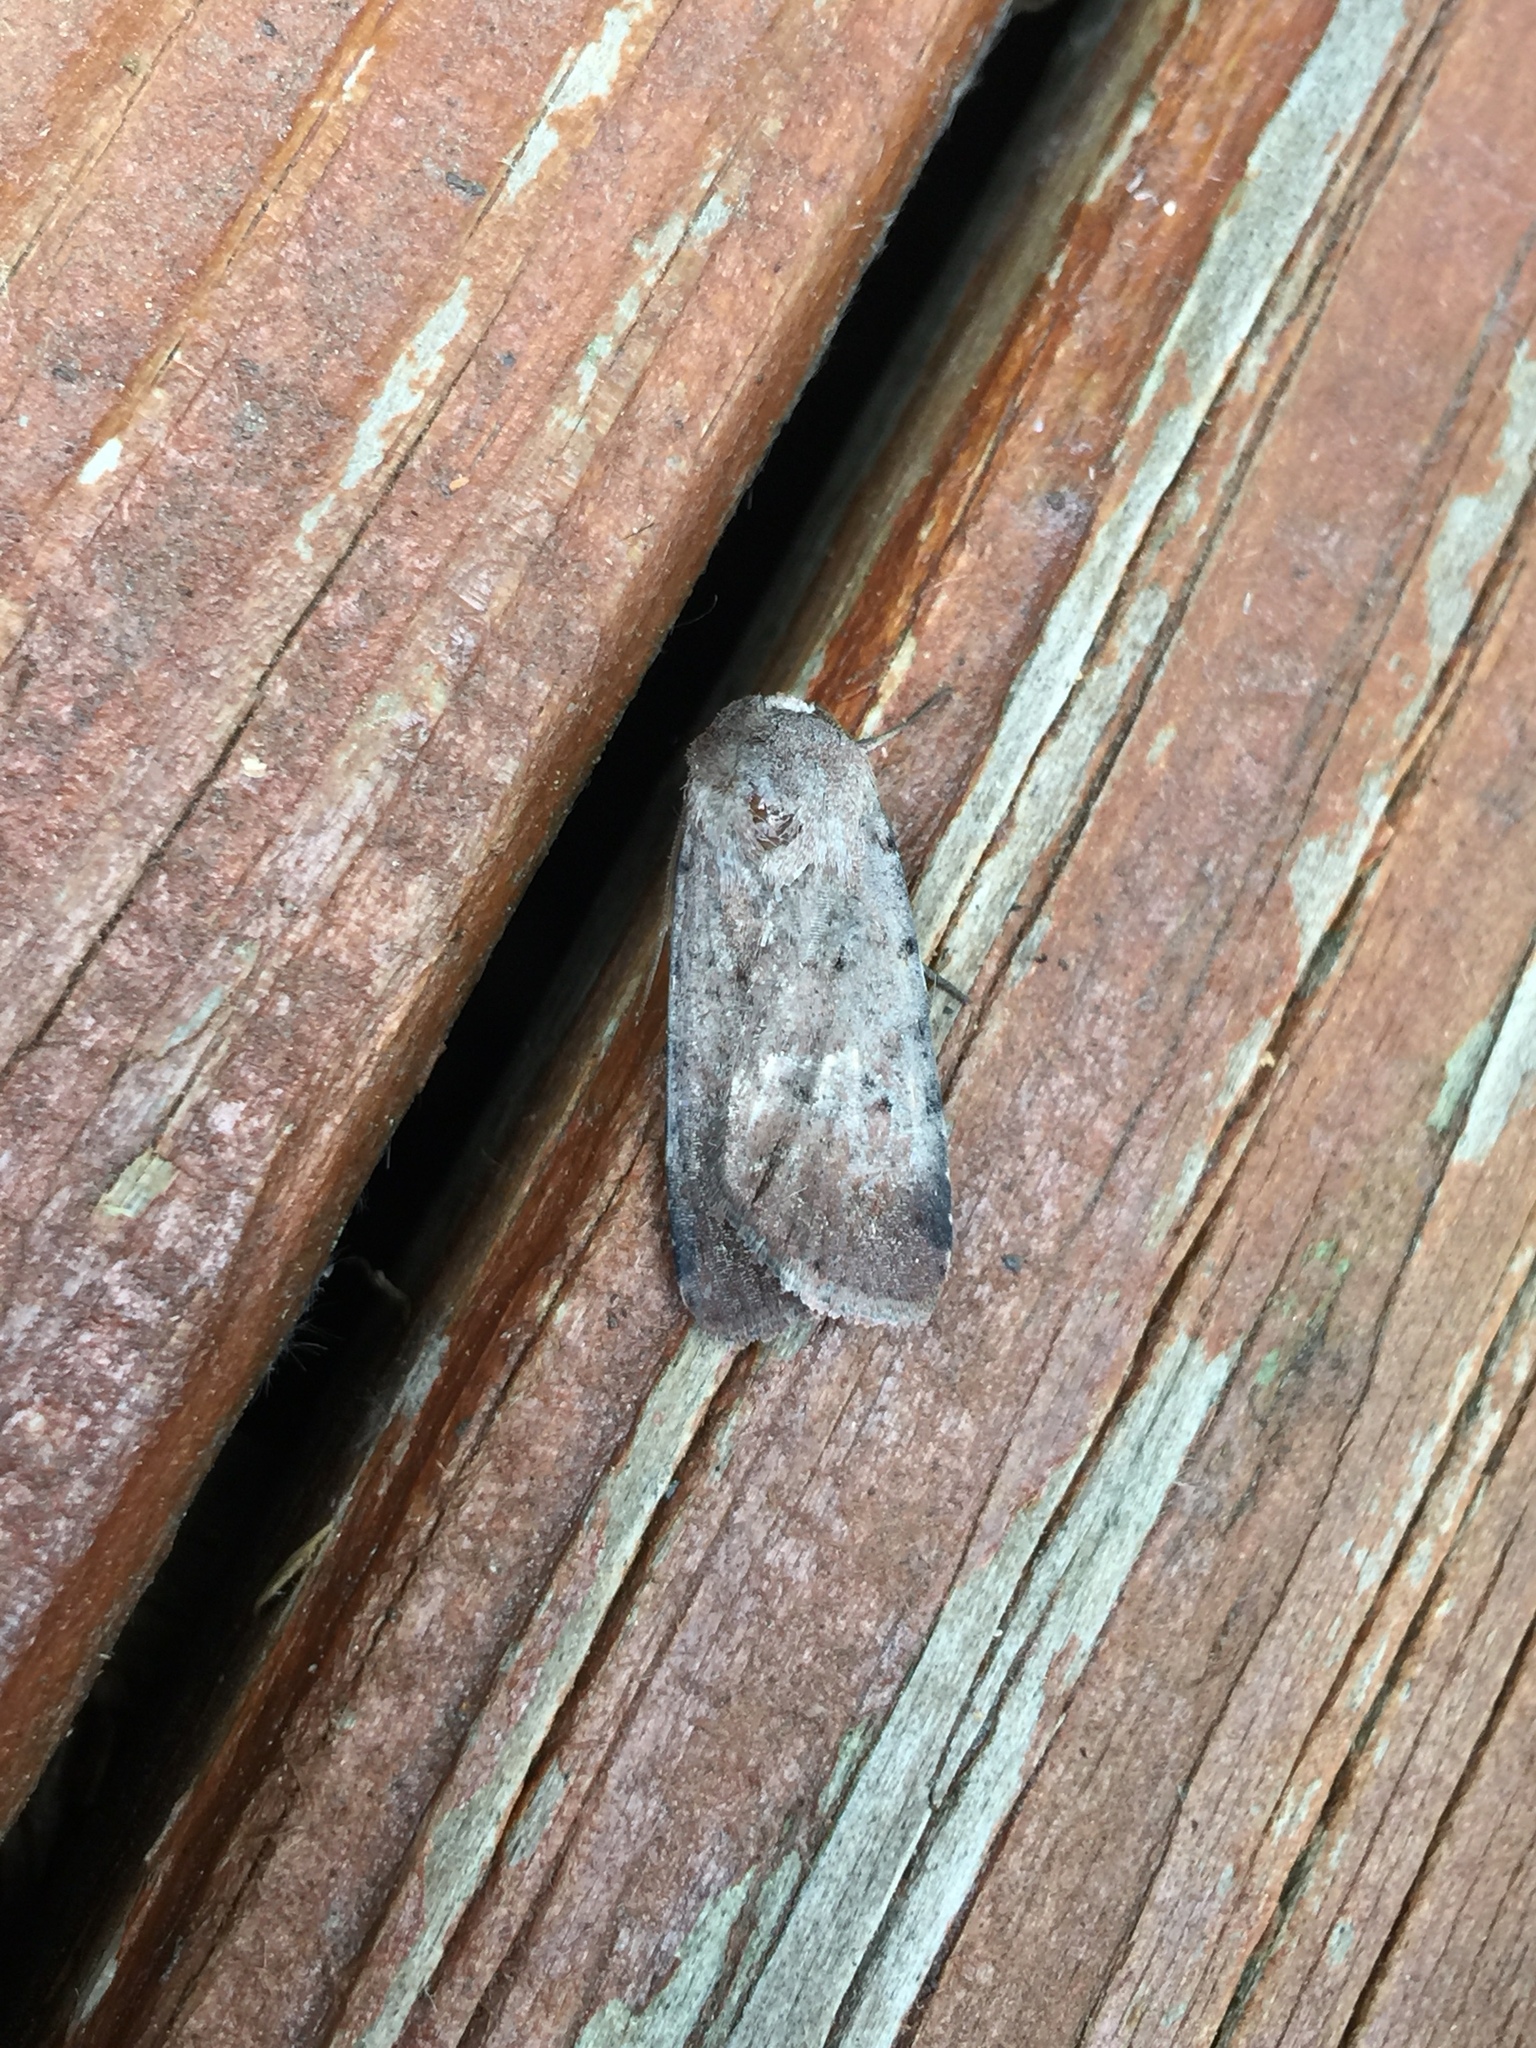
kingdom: Animalia
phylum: Arthropoda
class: Insecta
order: Lepidoptera
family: Noctuidae
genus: Anicla
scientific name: Anicla illapsa
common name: Snowy dart
